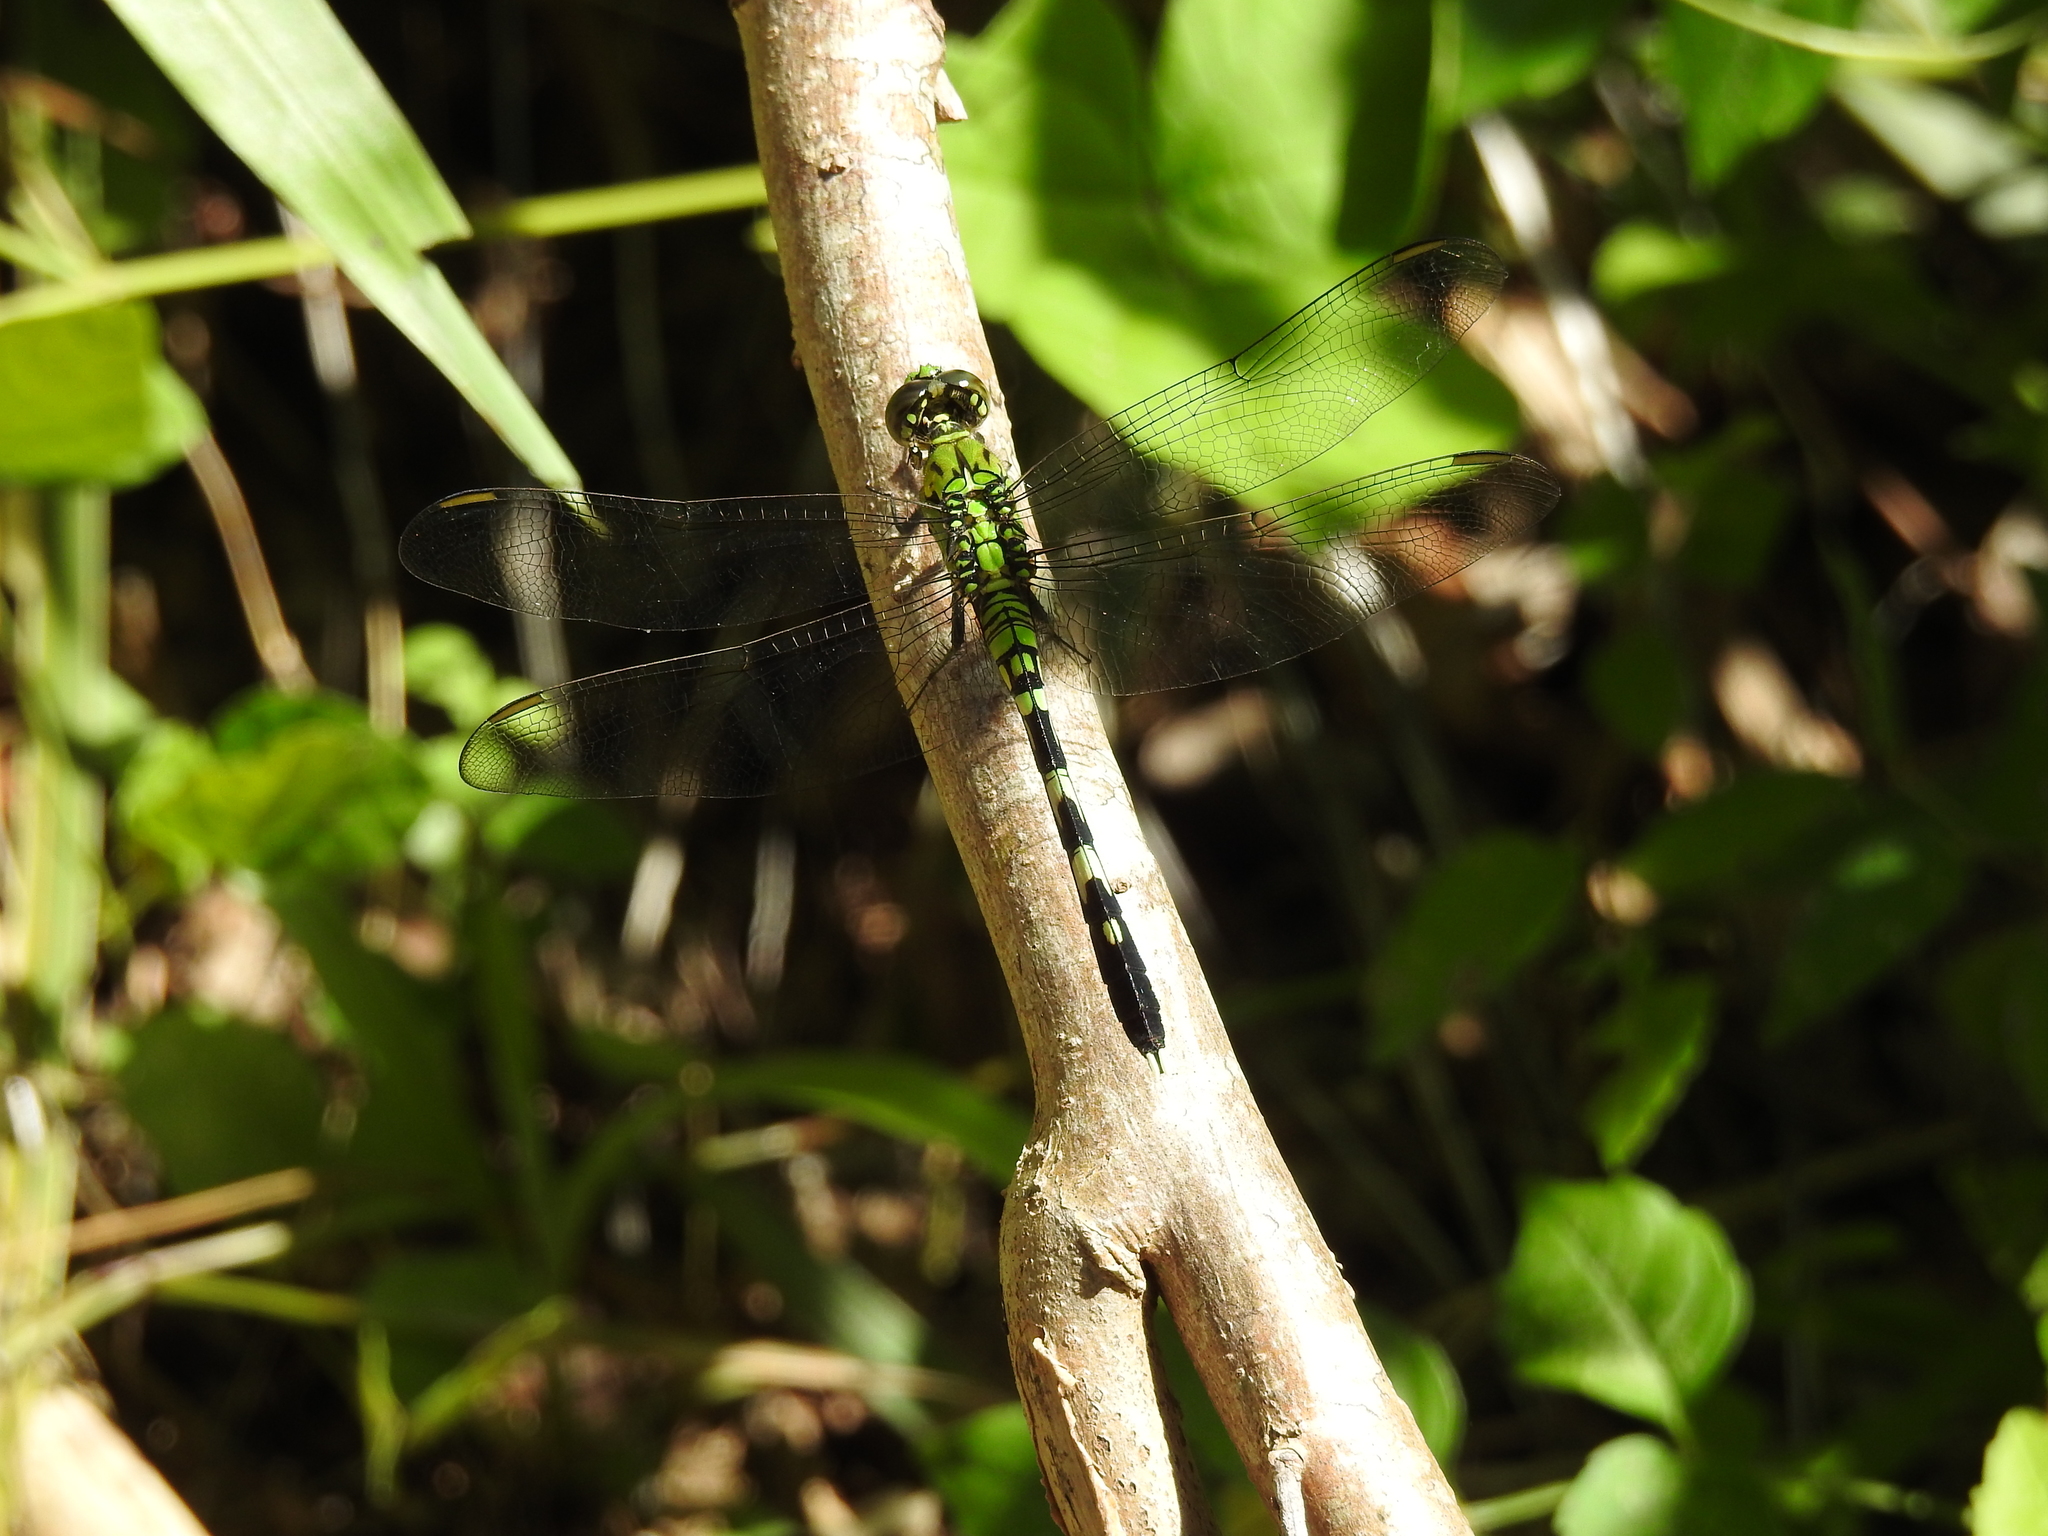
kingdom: Animalia
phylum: Arthropoda
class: Insecta
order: Odonata
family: Libellulidae
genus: Erythemis
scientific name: Erythemis simplicicollis
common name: Eastern pondhawk
